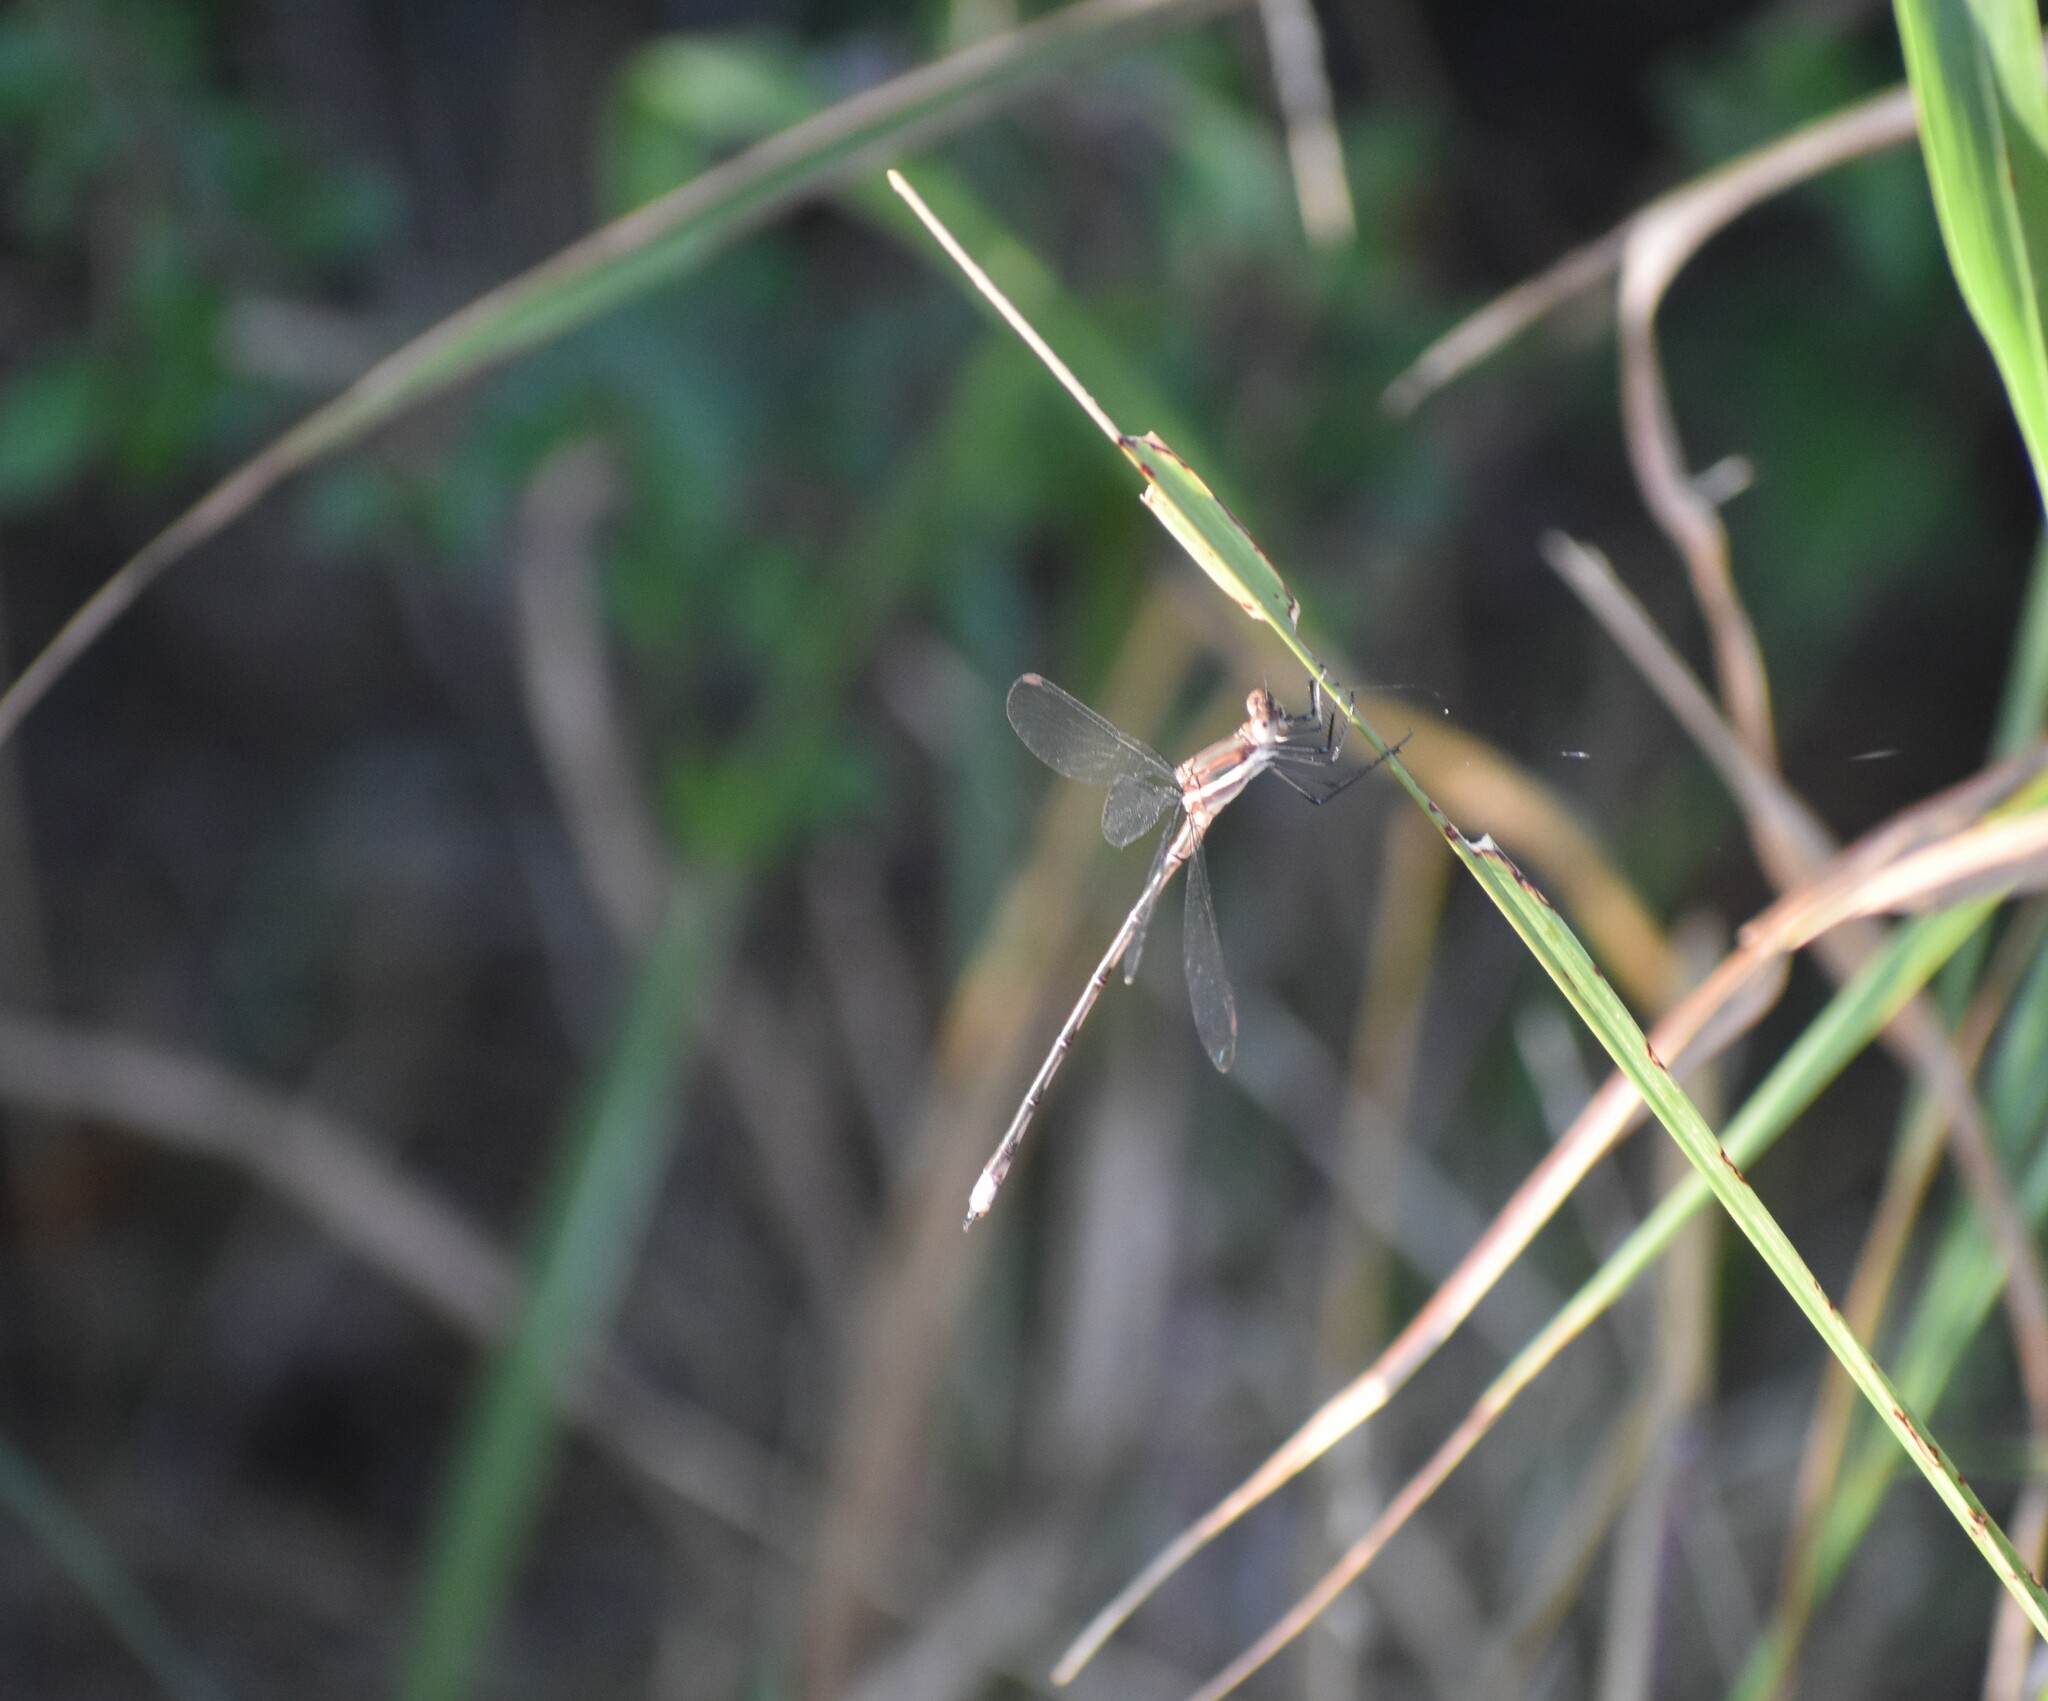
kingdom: Animalia
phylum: Arthropoda
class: Insecta
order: Odonata
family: Lestidae
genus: Archilestes
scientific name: Archilestes grandis
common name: Great spreadwing
